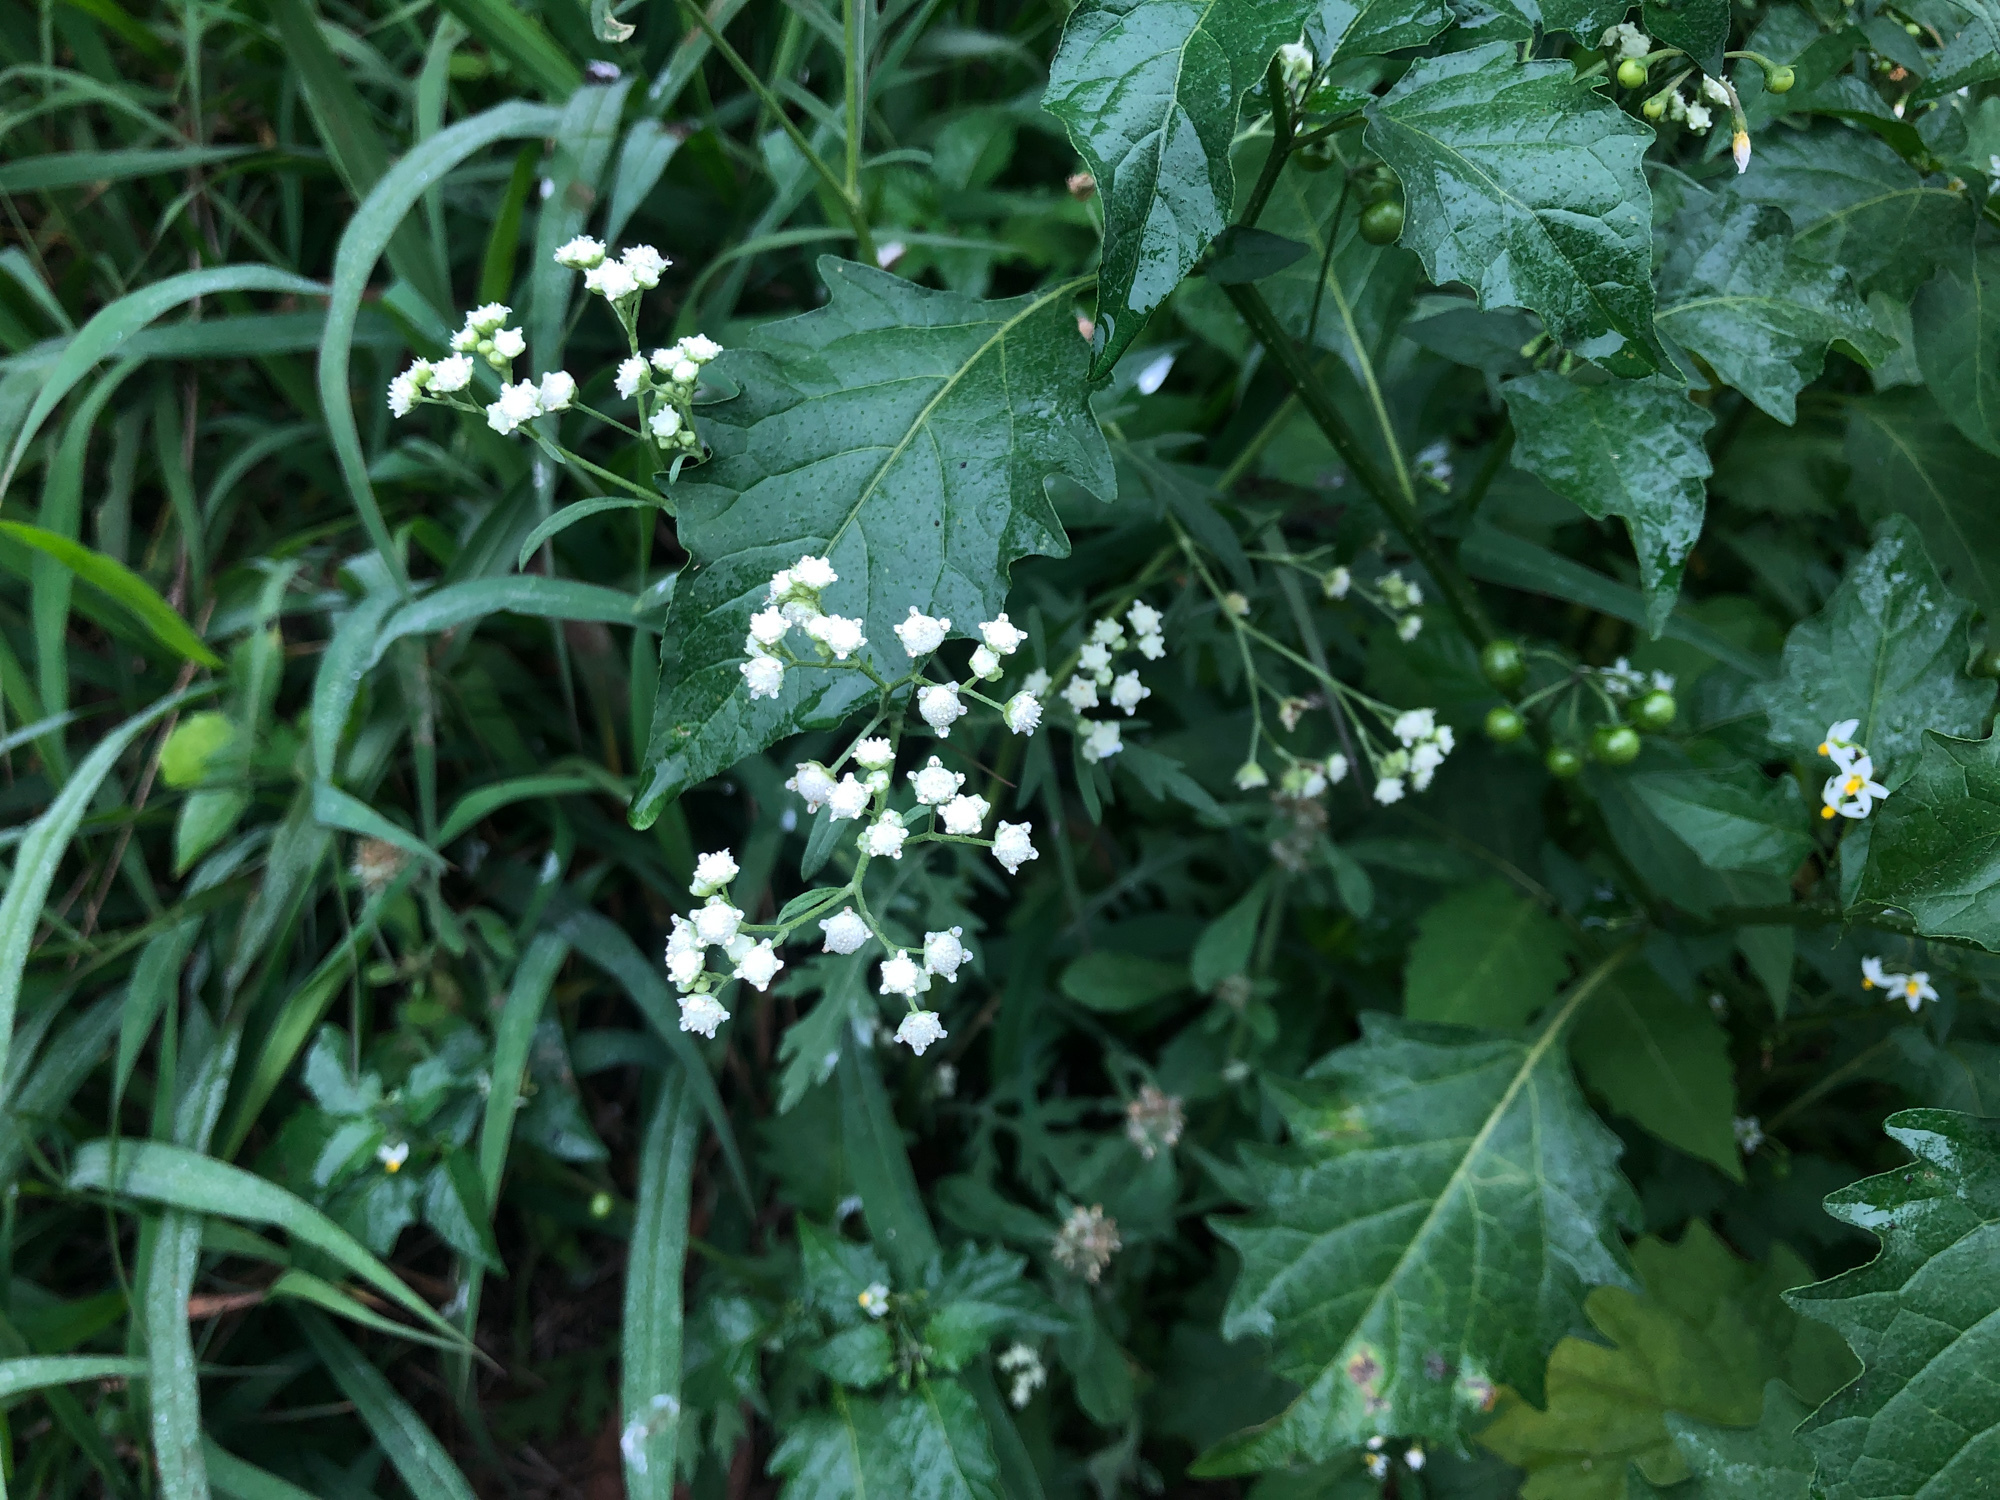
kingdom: Plantae
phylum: Tracheophyta
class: Magnoliopsida
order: Asterales
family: Asteraceae
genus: Parthenium
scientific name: Parthenium hysterophorus
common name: Santa maria feverfew
